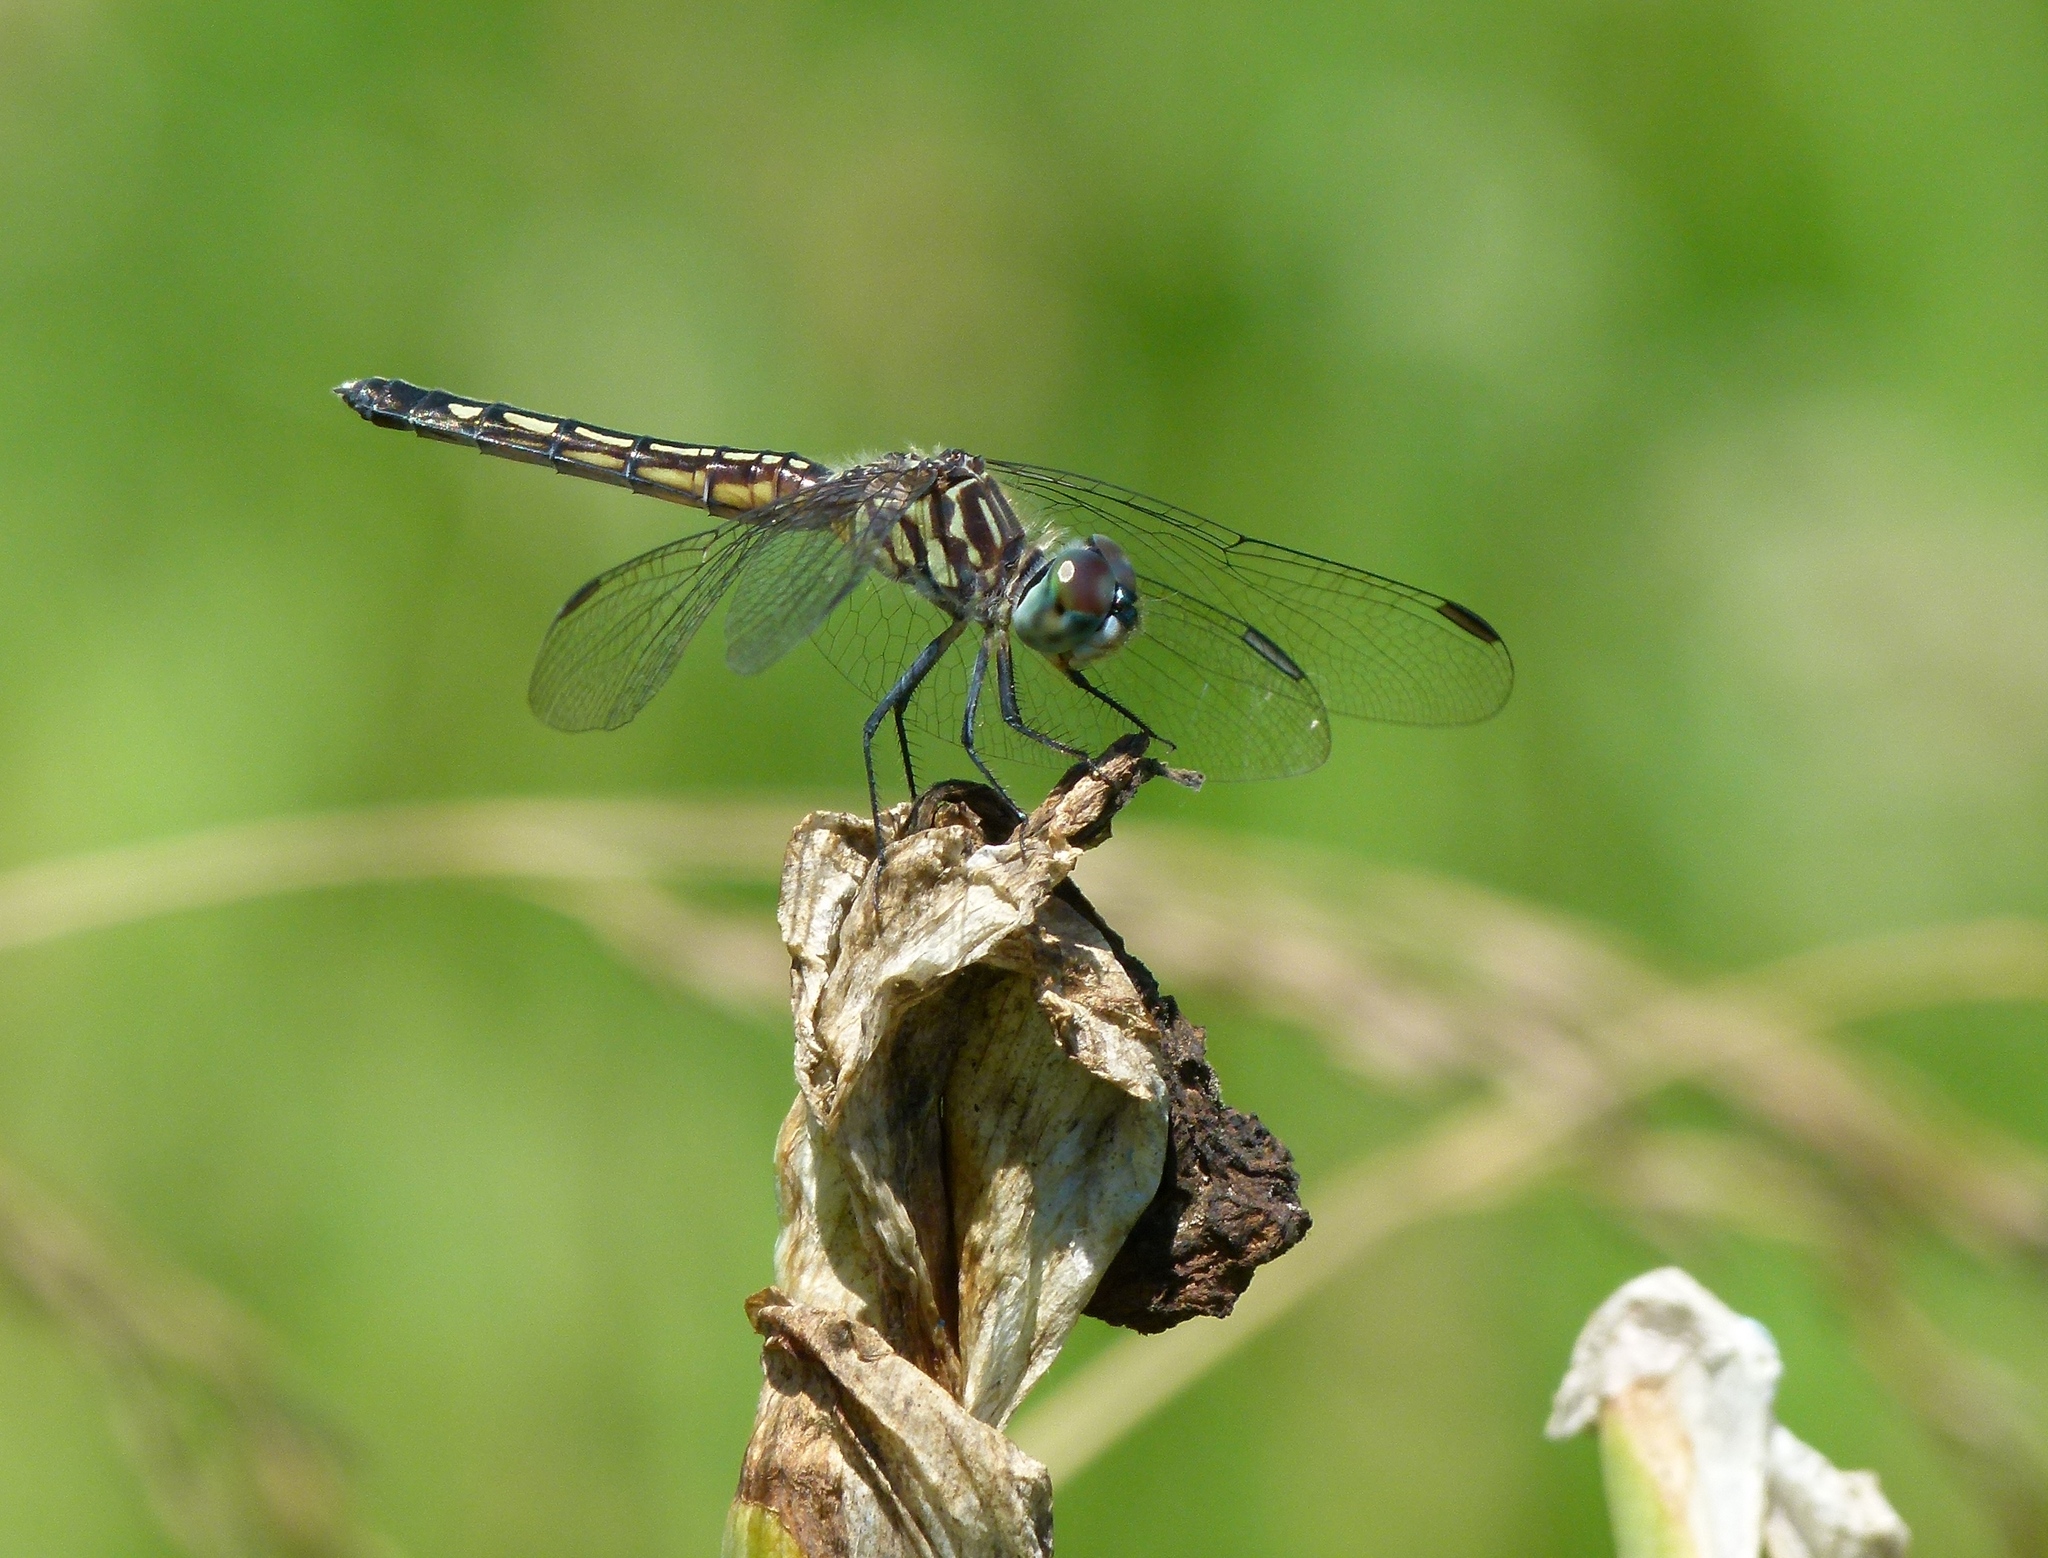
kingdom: Animalia
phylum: Arthropoda
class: Insecta
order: Odonata
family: Libellulidae
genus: Pachydiplax
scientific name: Pachydiplax longipennis
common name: Blue dasher
